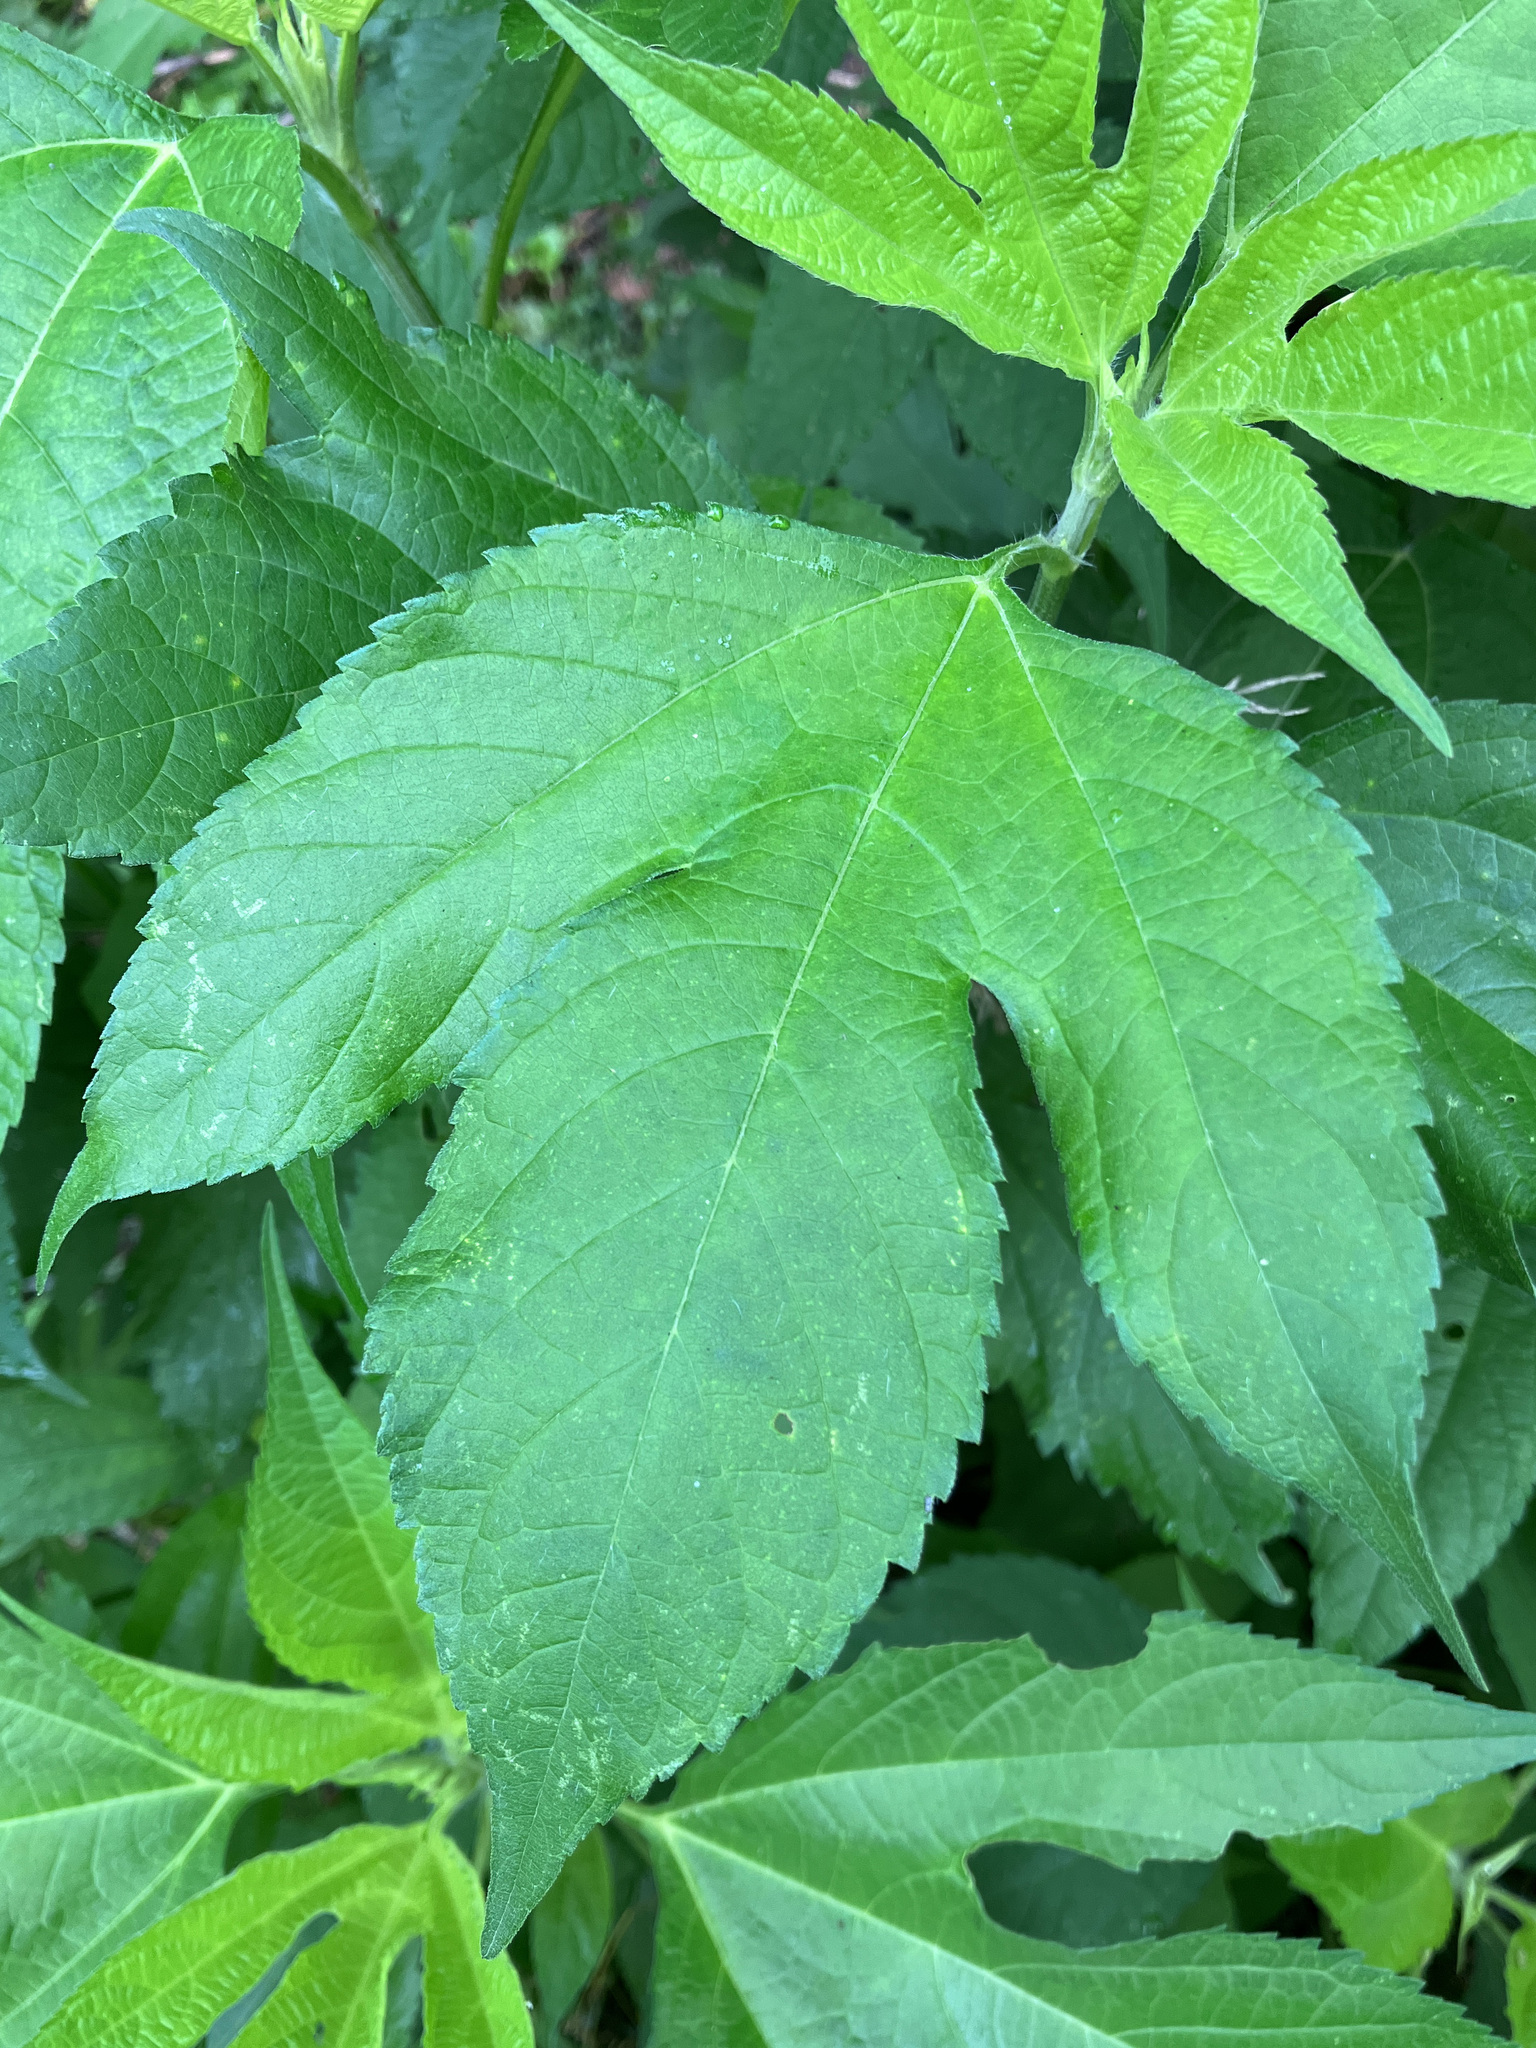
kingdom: Plantae
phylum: Tracheophyta
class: Magnoliopsida
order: Asterales
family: Asteraceae
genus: Ambrosia
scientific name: Ambrosia trifida
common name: Giant ragweed
